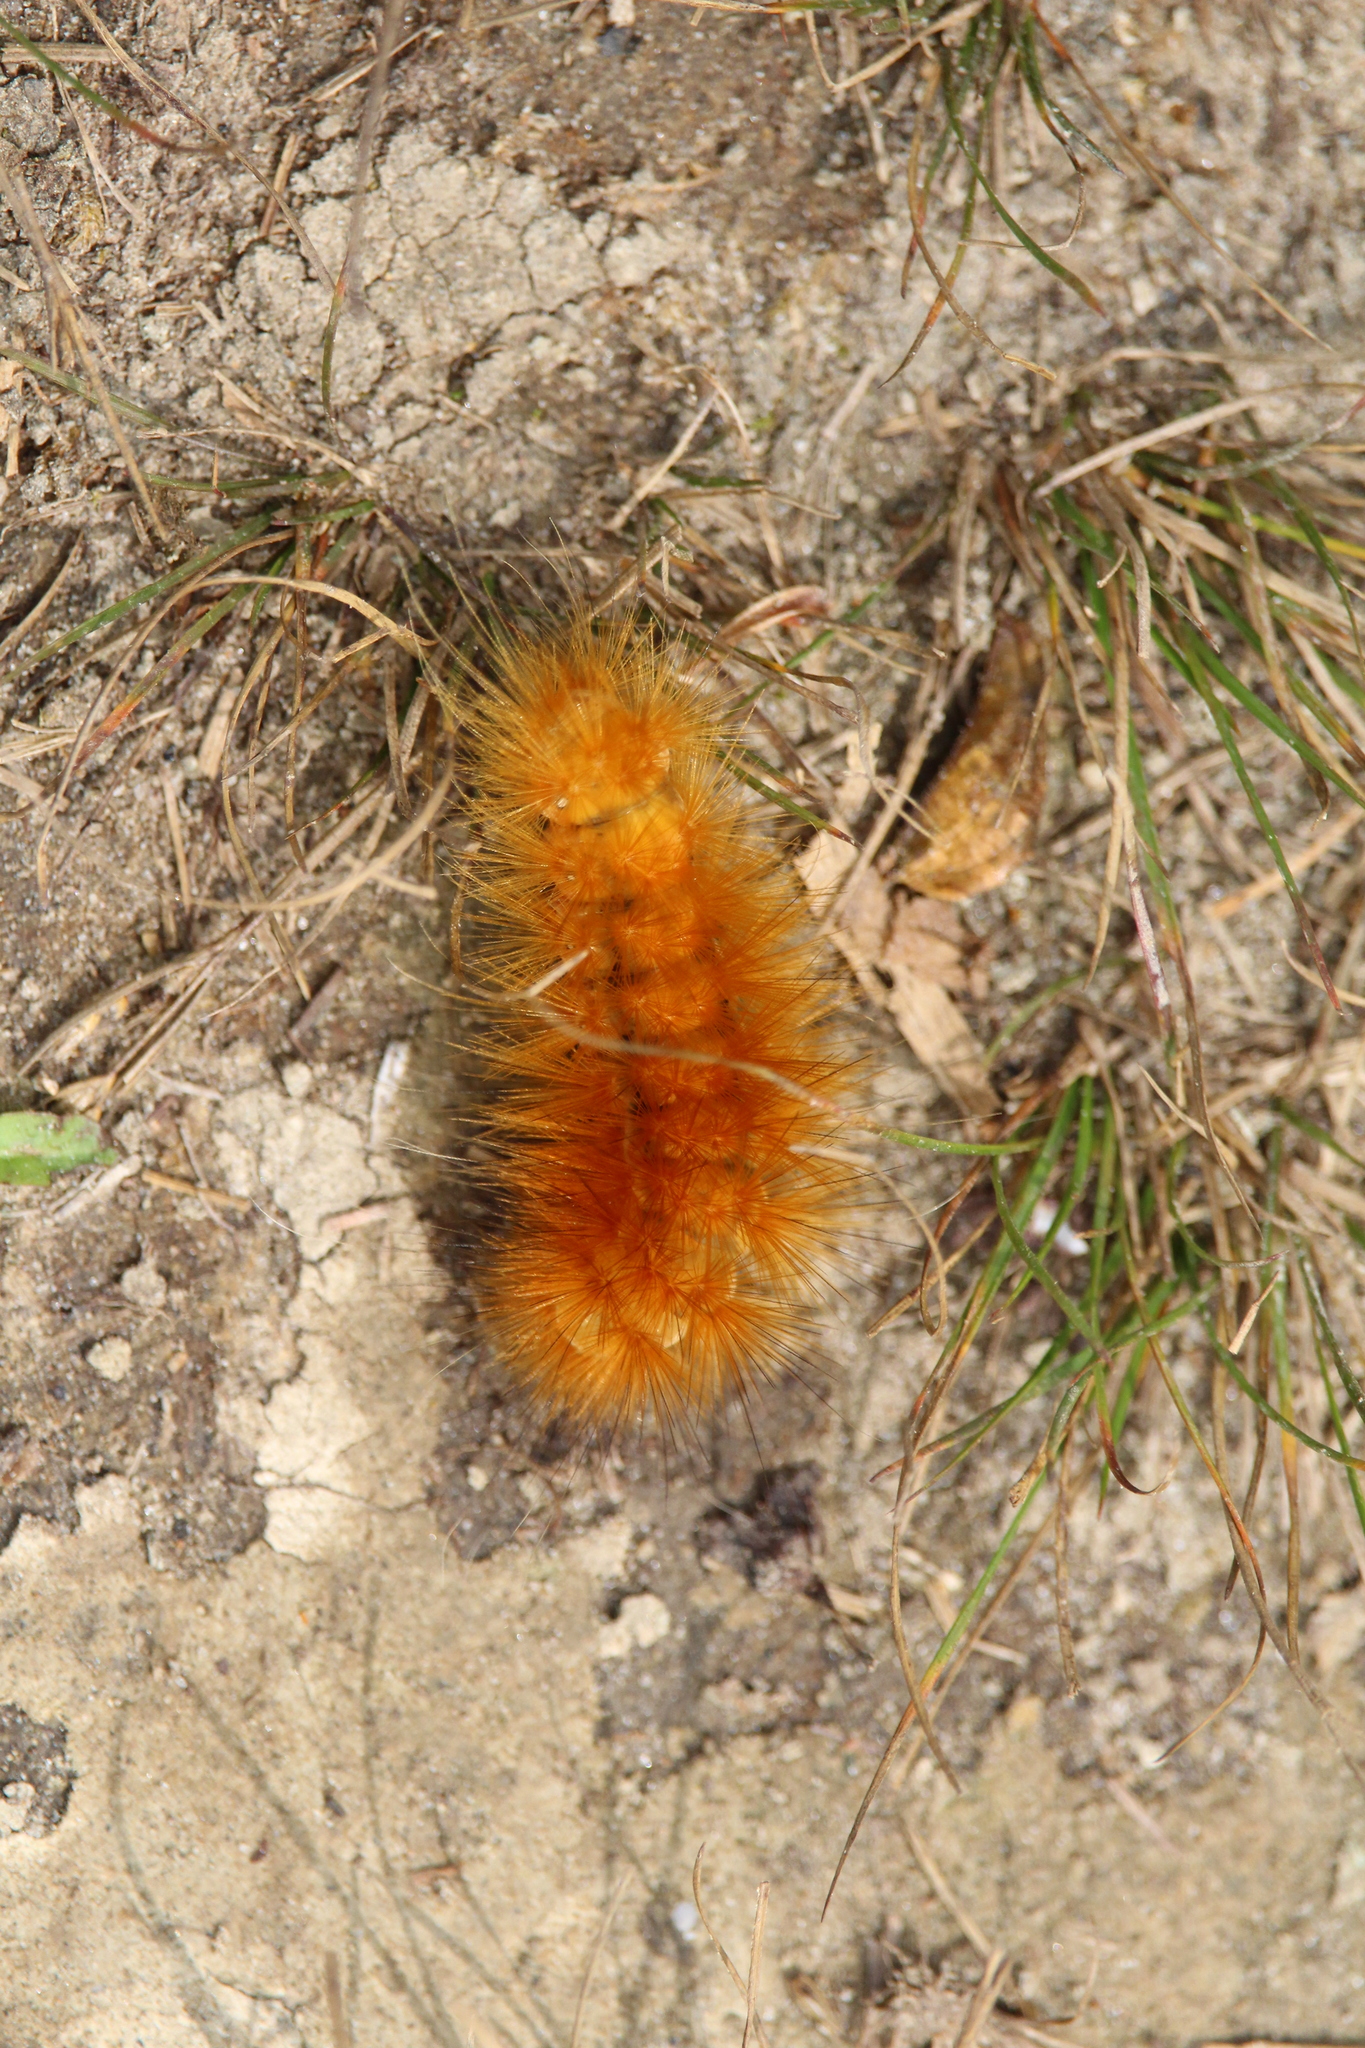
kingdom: Animalia
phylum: Arthropoda
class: Insecta
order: Lepidoptera
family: Erebidae
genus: Spilosoma
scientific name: Spilosoma virginica
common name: Virginia tiger moth
